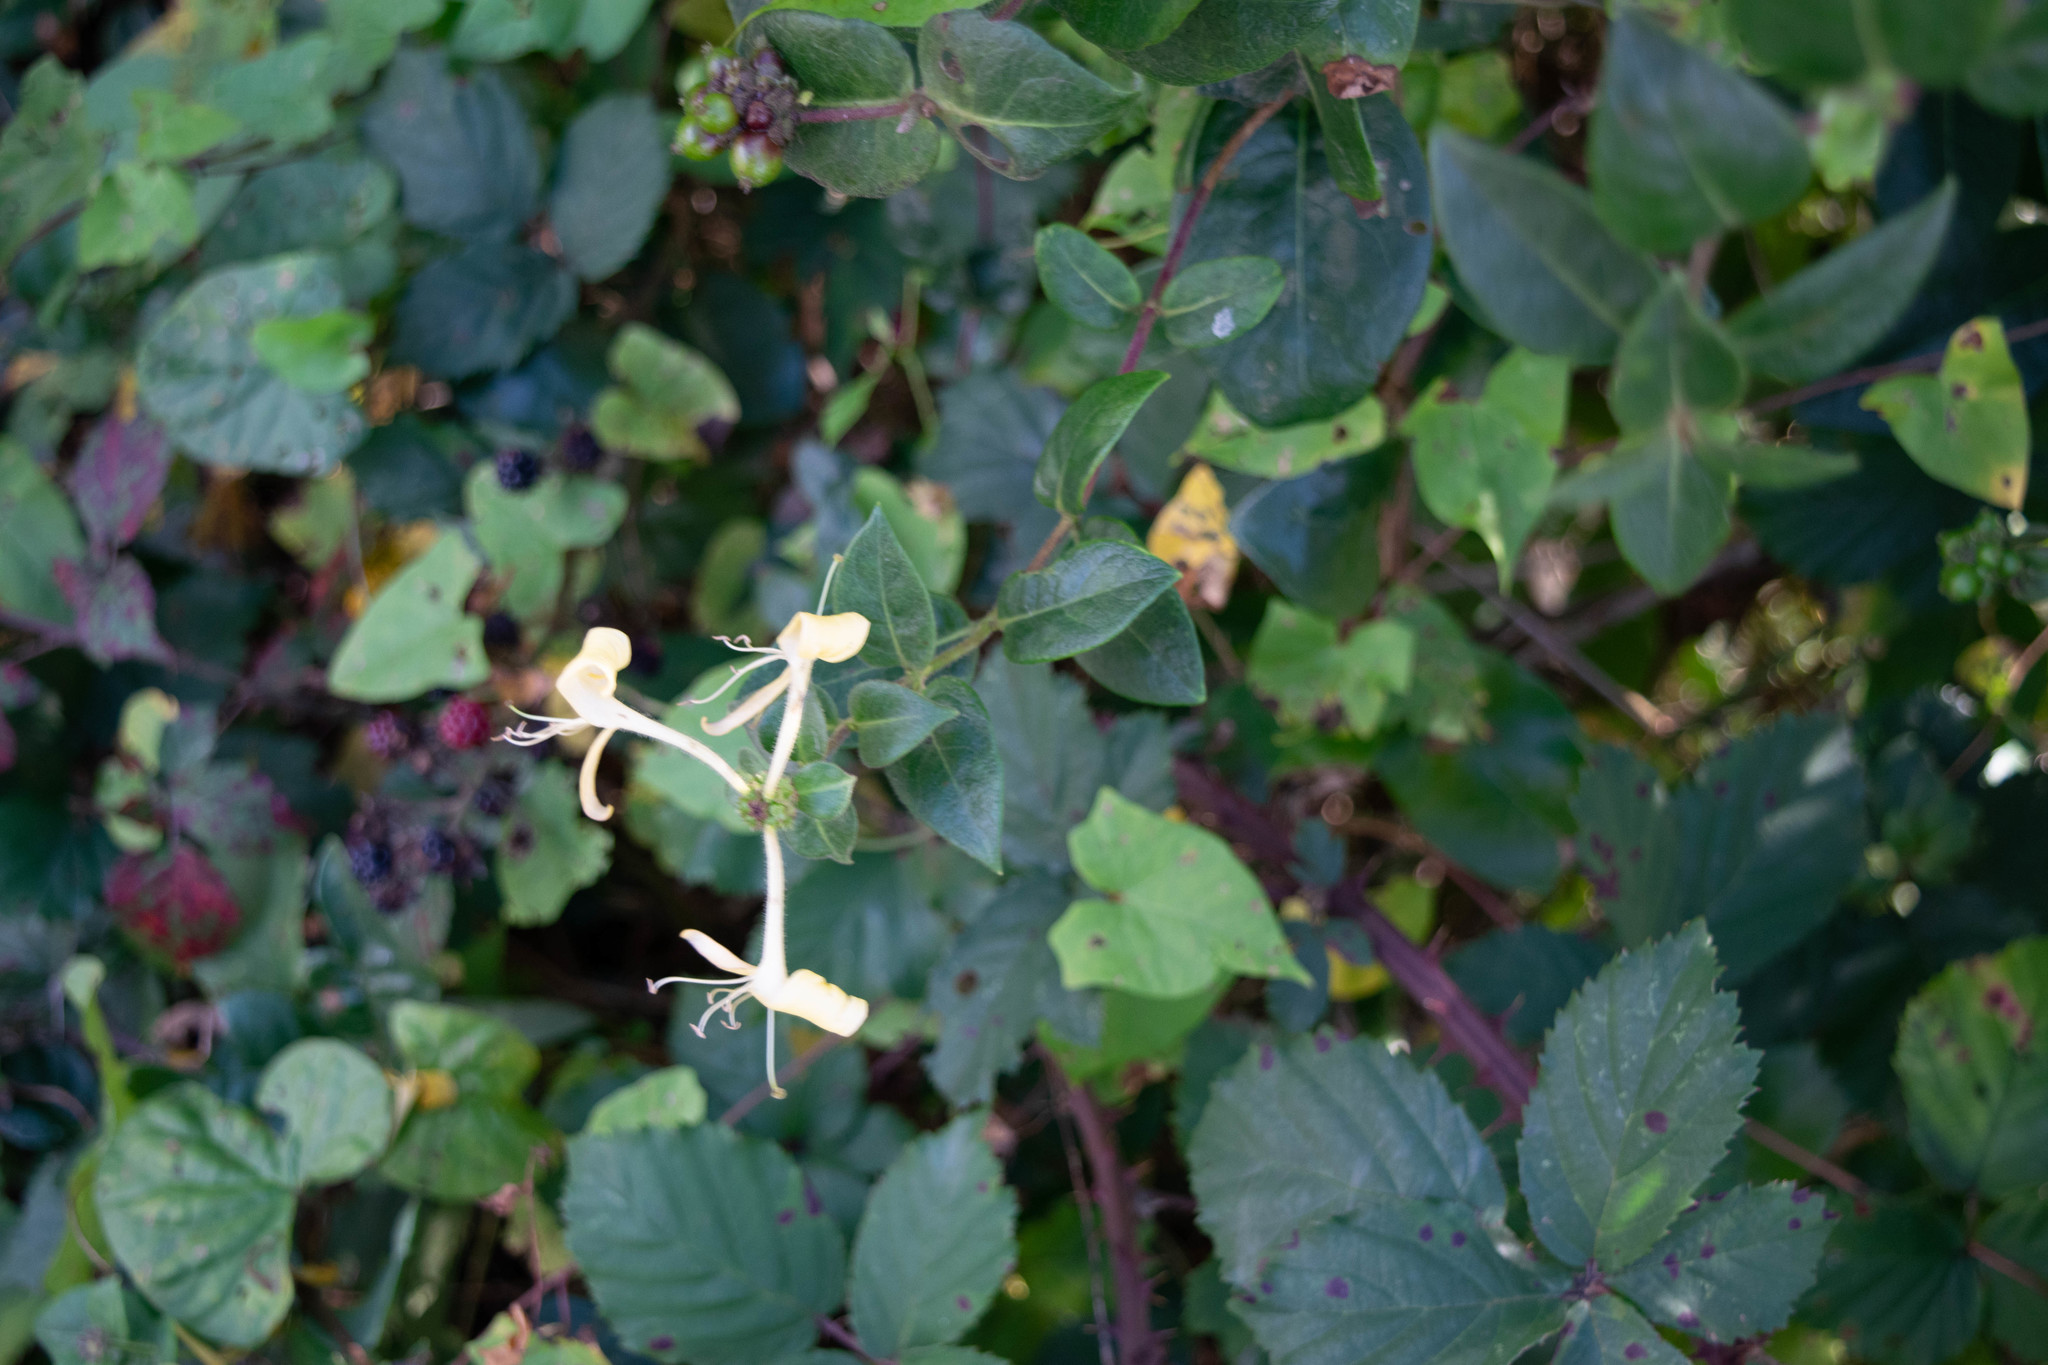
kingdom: Plantae
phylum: Tracheophyta
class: Magnoliopsida
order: Dipsacales
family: Caprifoliaceae
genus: Lonicera
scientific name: Lonicera periclymenum
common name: European honeysuckle
